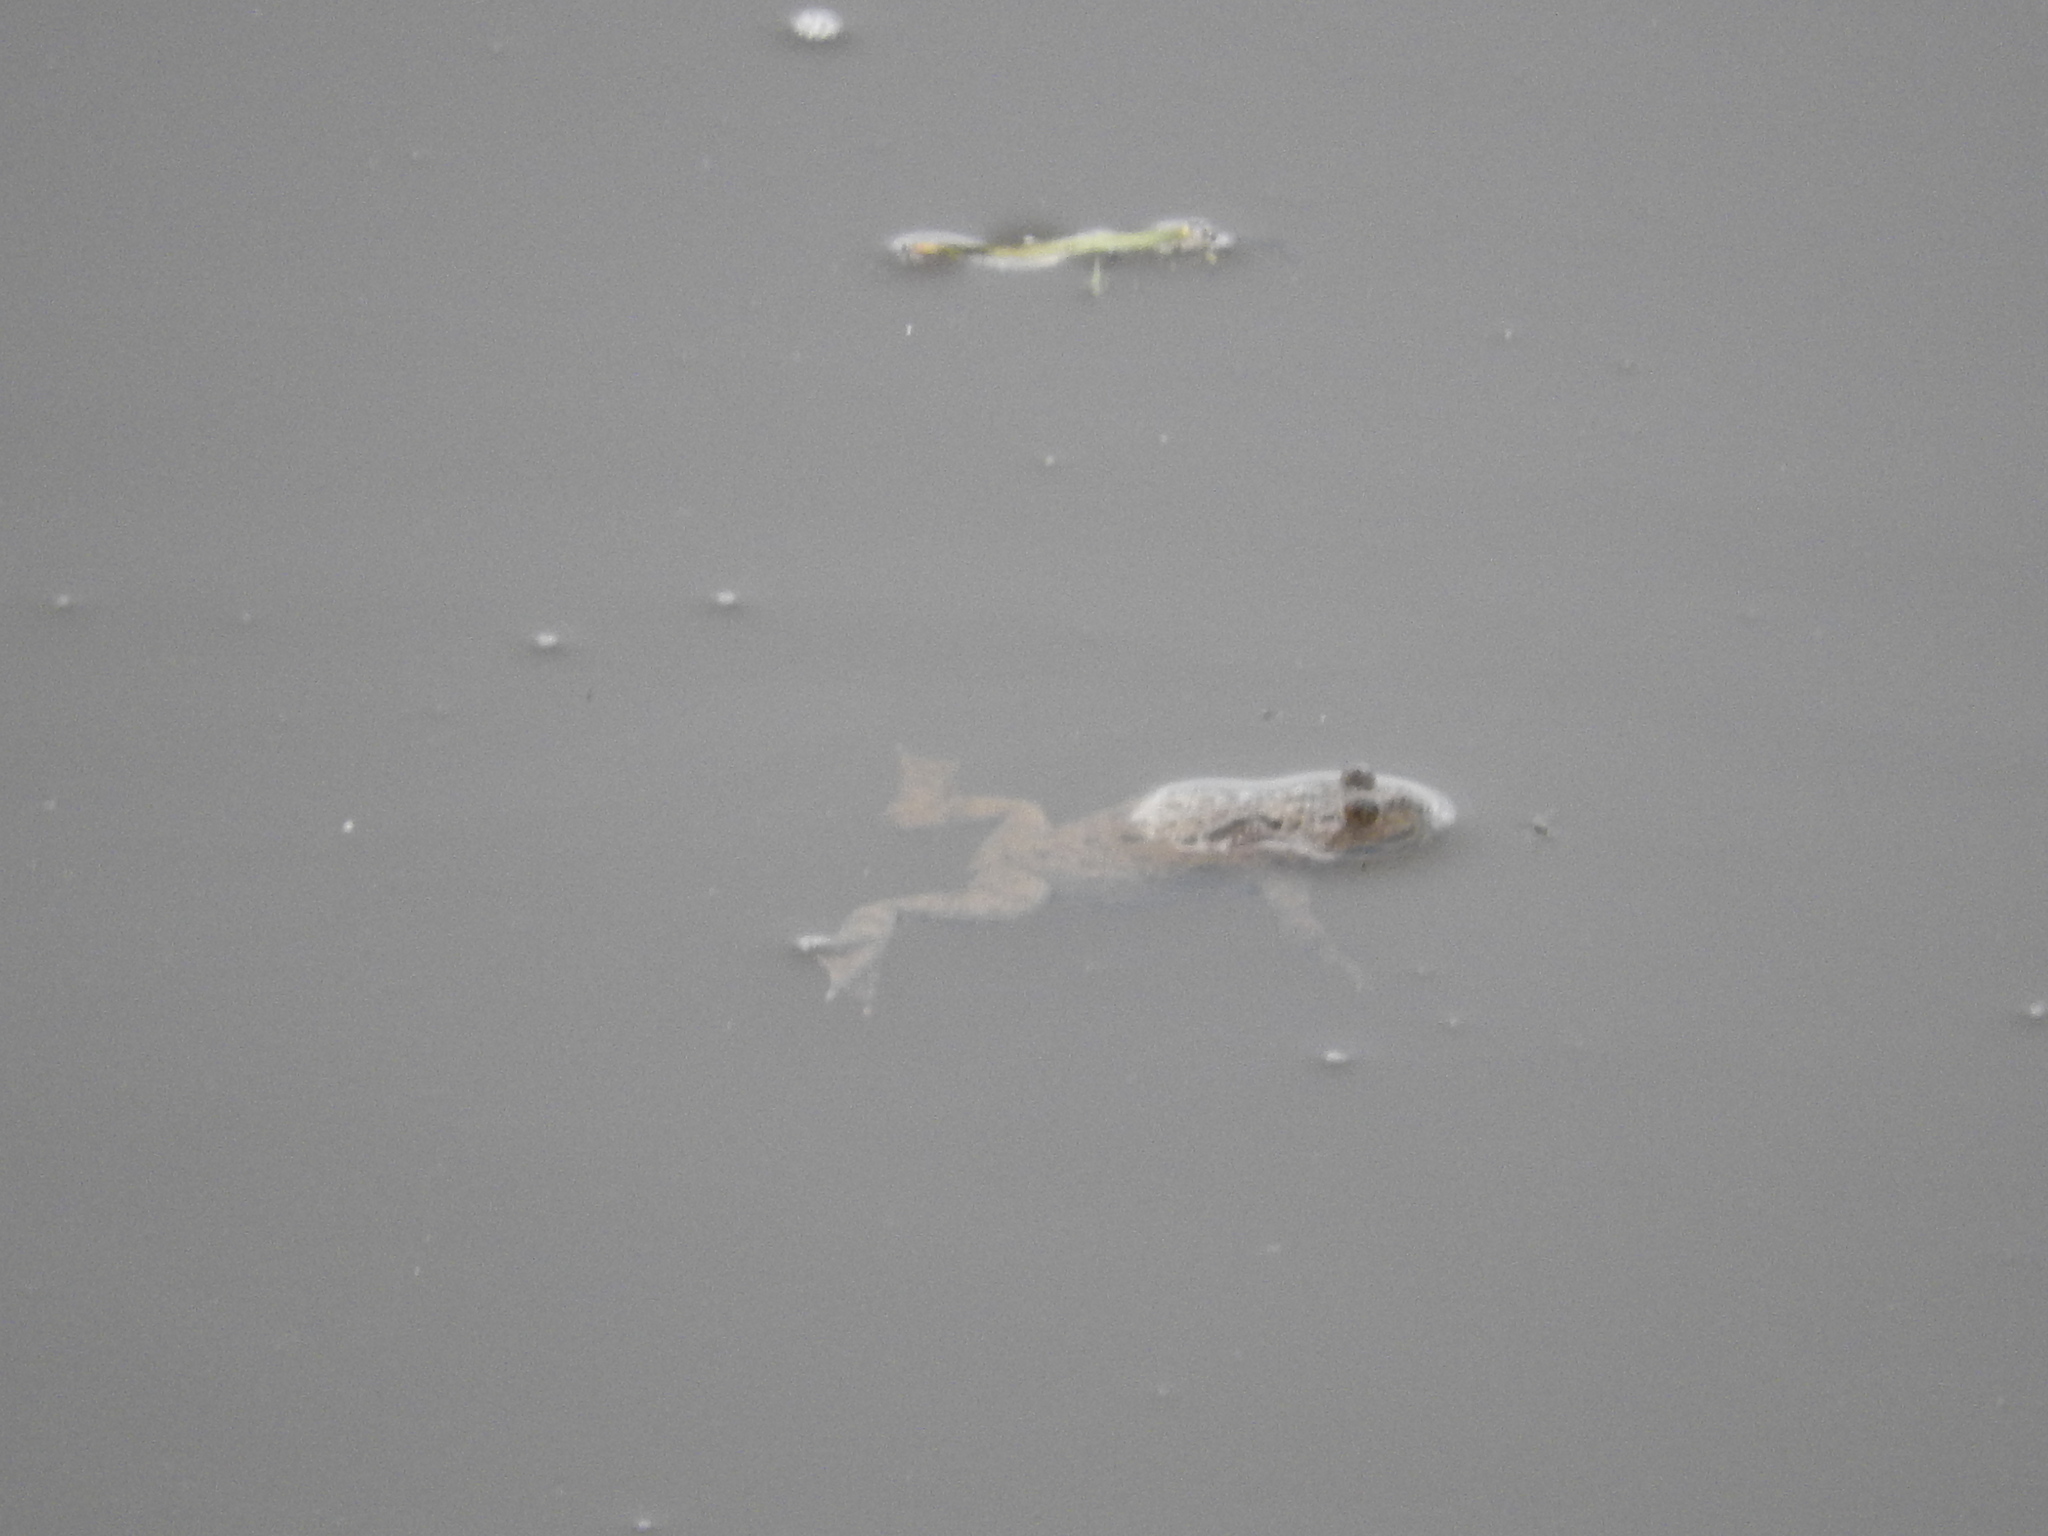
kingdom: Animalia
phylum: Chordata
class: Amphibia
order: Anura
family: Bombinatoridae
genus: Bombina
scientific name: Bombina variegata
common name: Yellow-bellied toad
